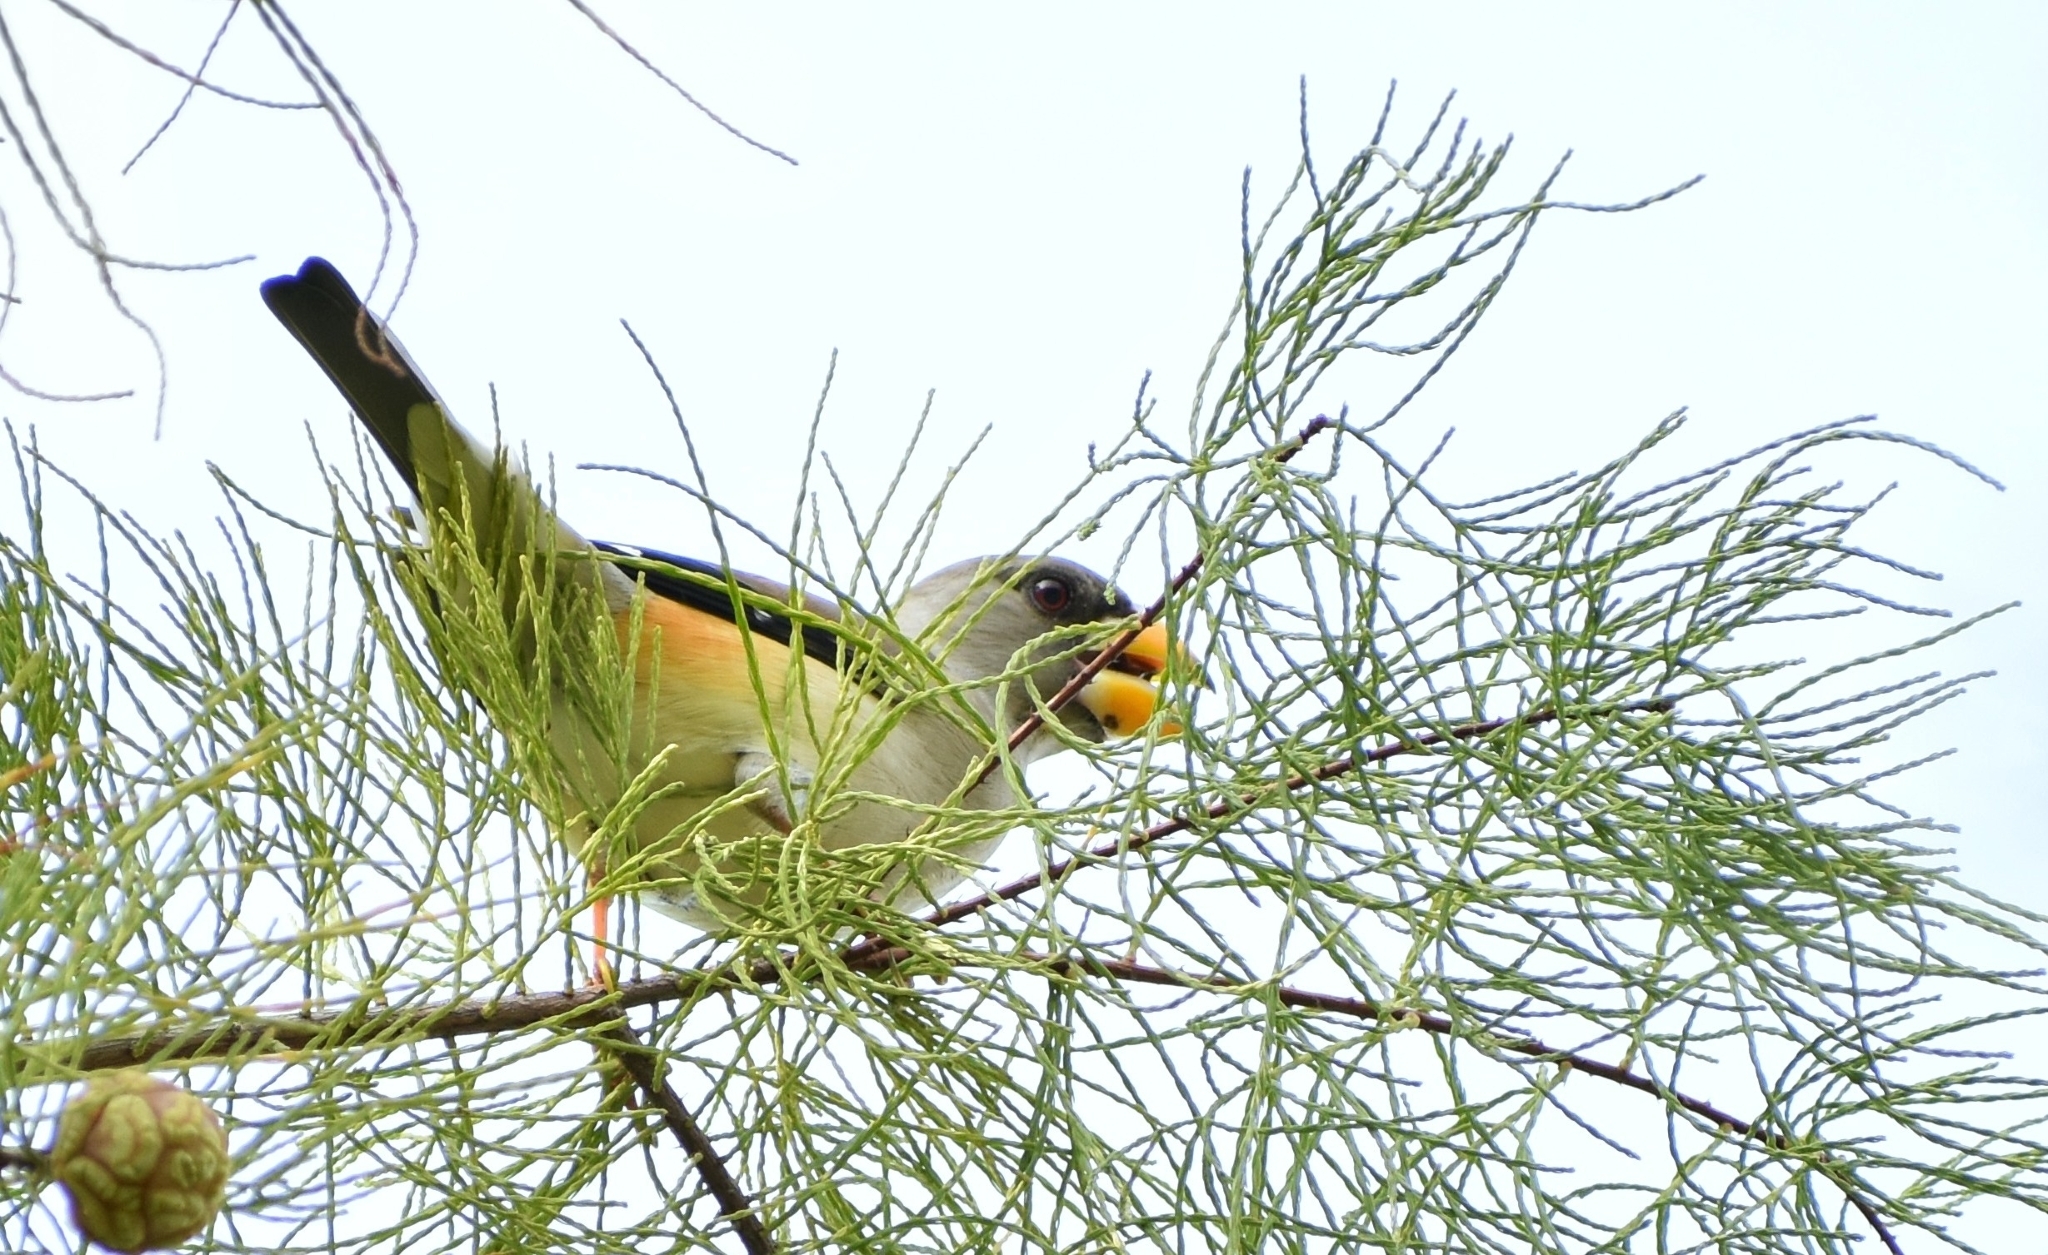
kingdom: Animalia
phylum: Chordata
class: Aves
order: Passeriformes
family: Fringillidae
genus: Eophona
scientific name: Eophona migratoria
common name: Yellow-billed grosbeak
